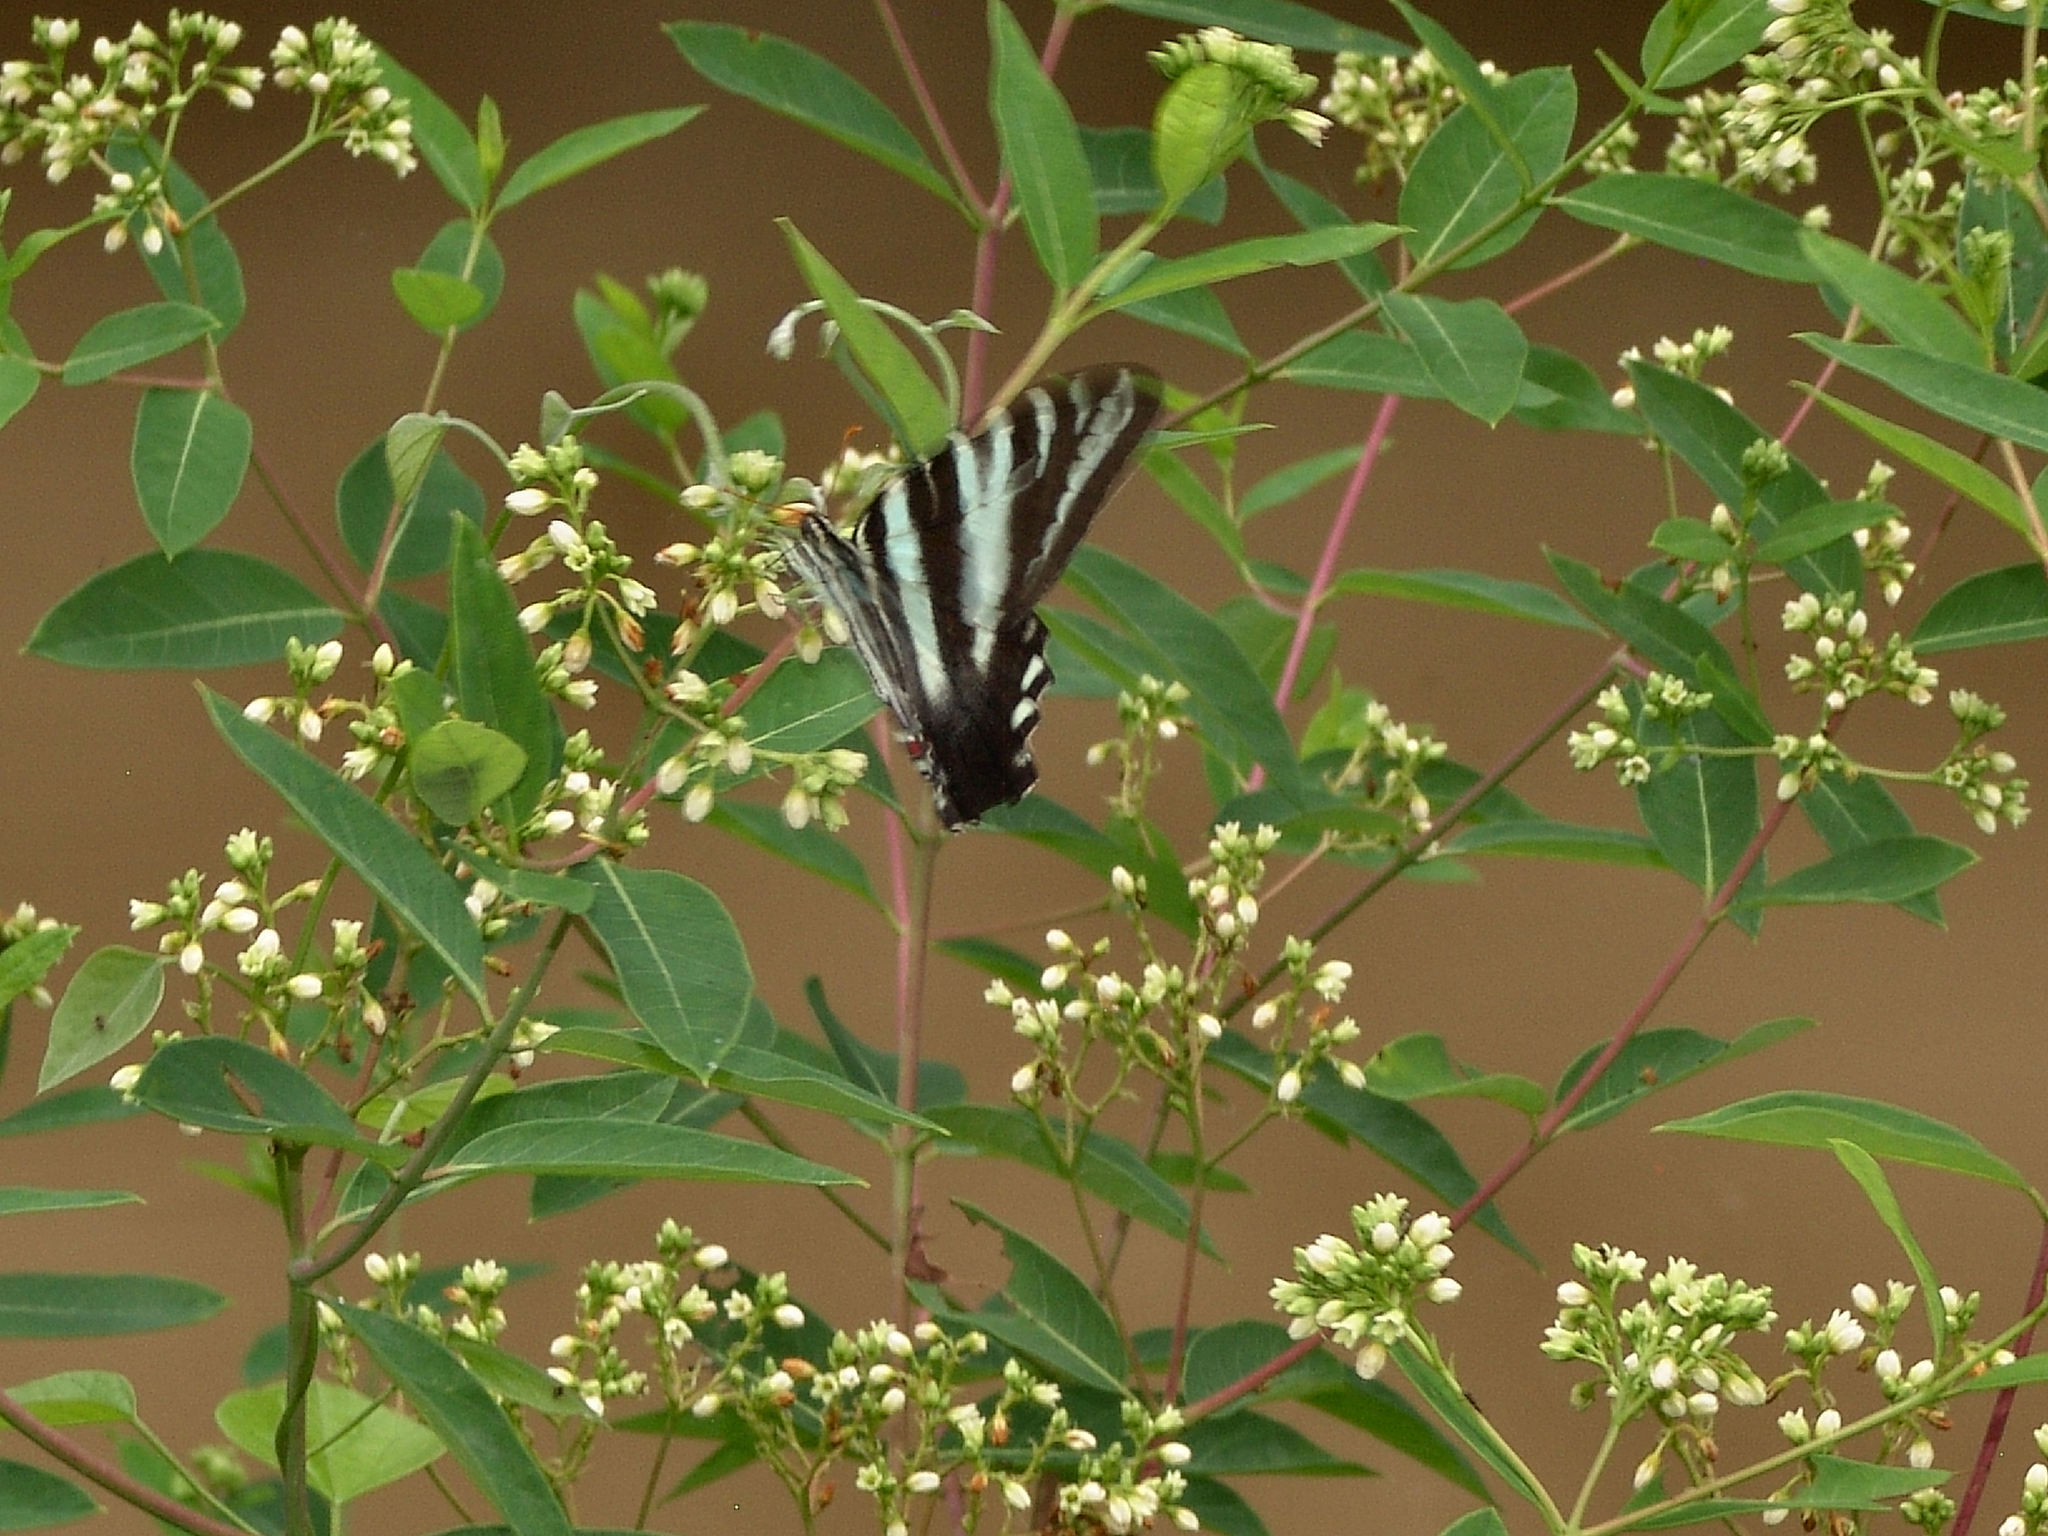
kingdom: Animalia
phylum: Arthropoda
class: Insecta
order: Lepidoptera
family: Papilionidae
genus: Protographium
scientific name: Protographium marcellus
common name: Zebra swallowtail
